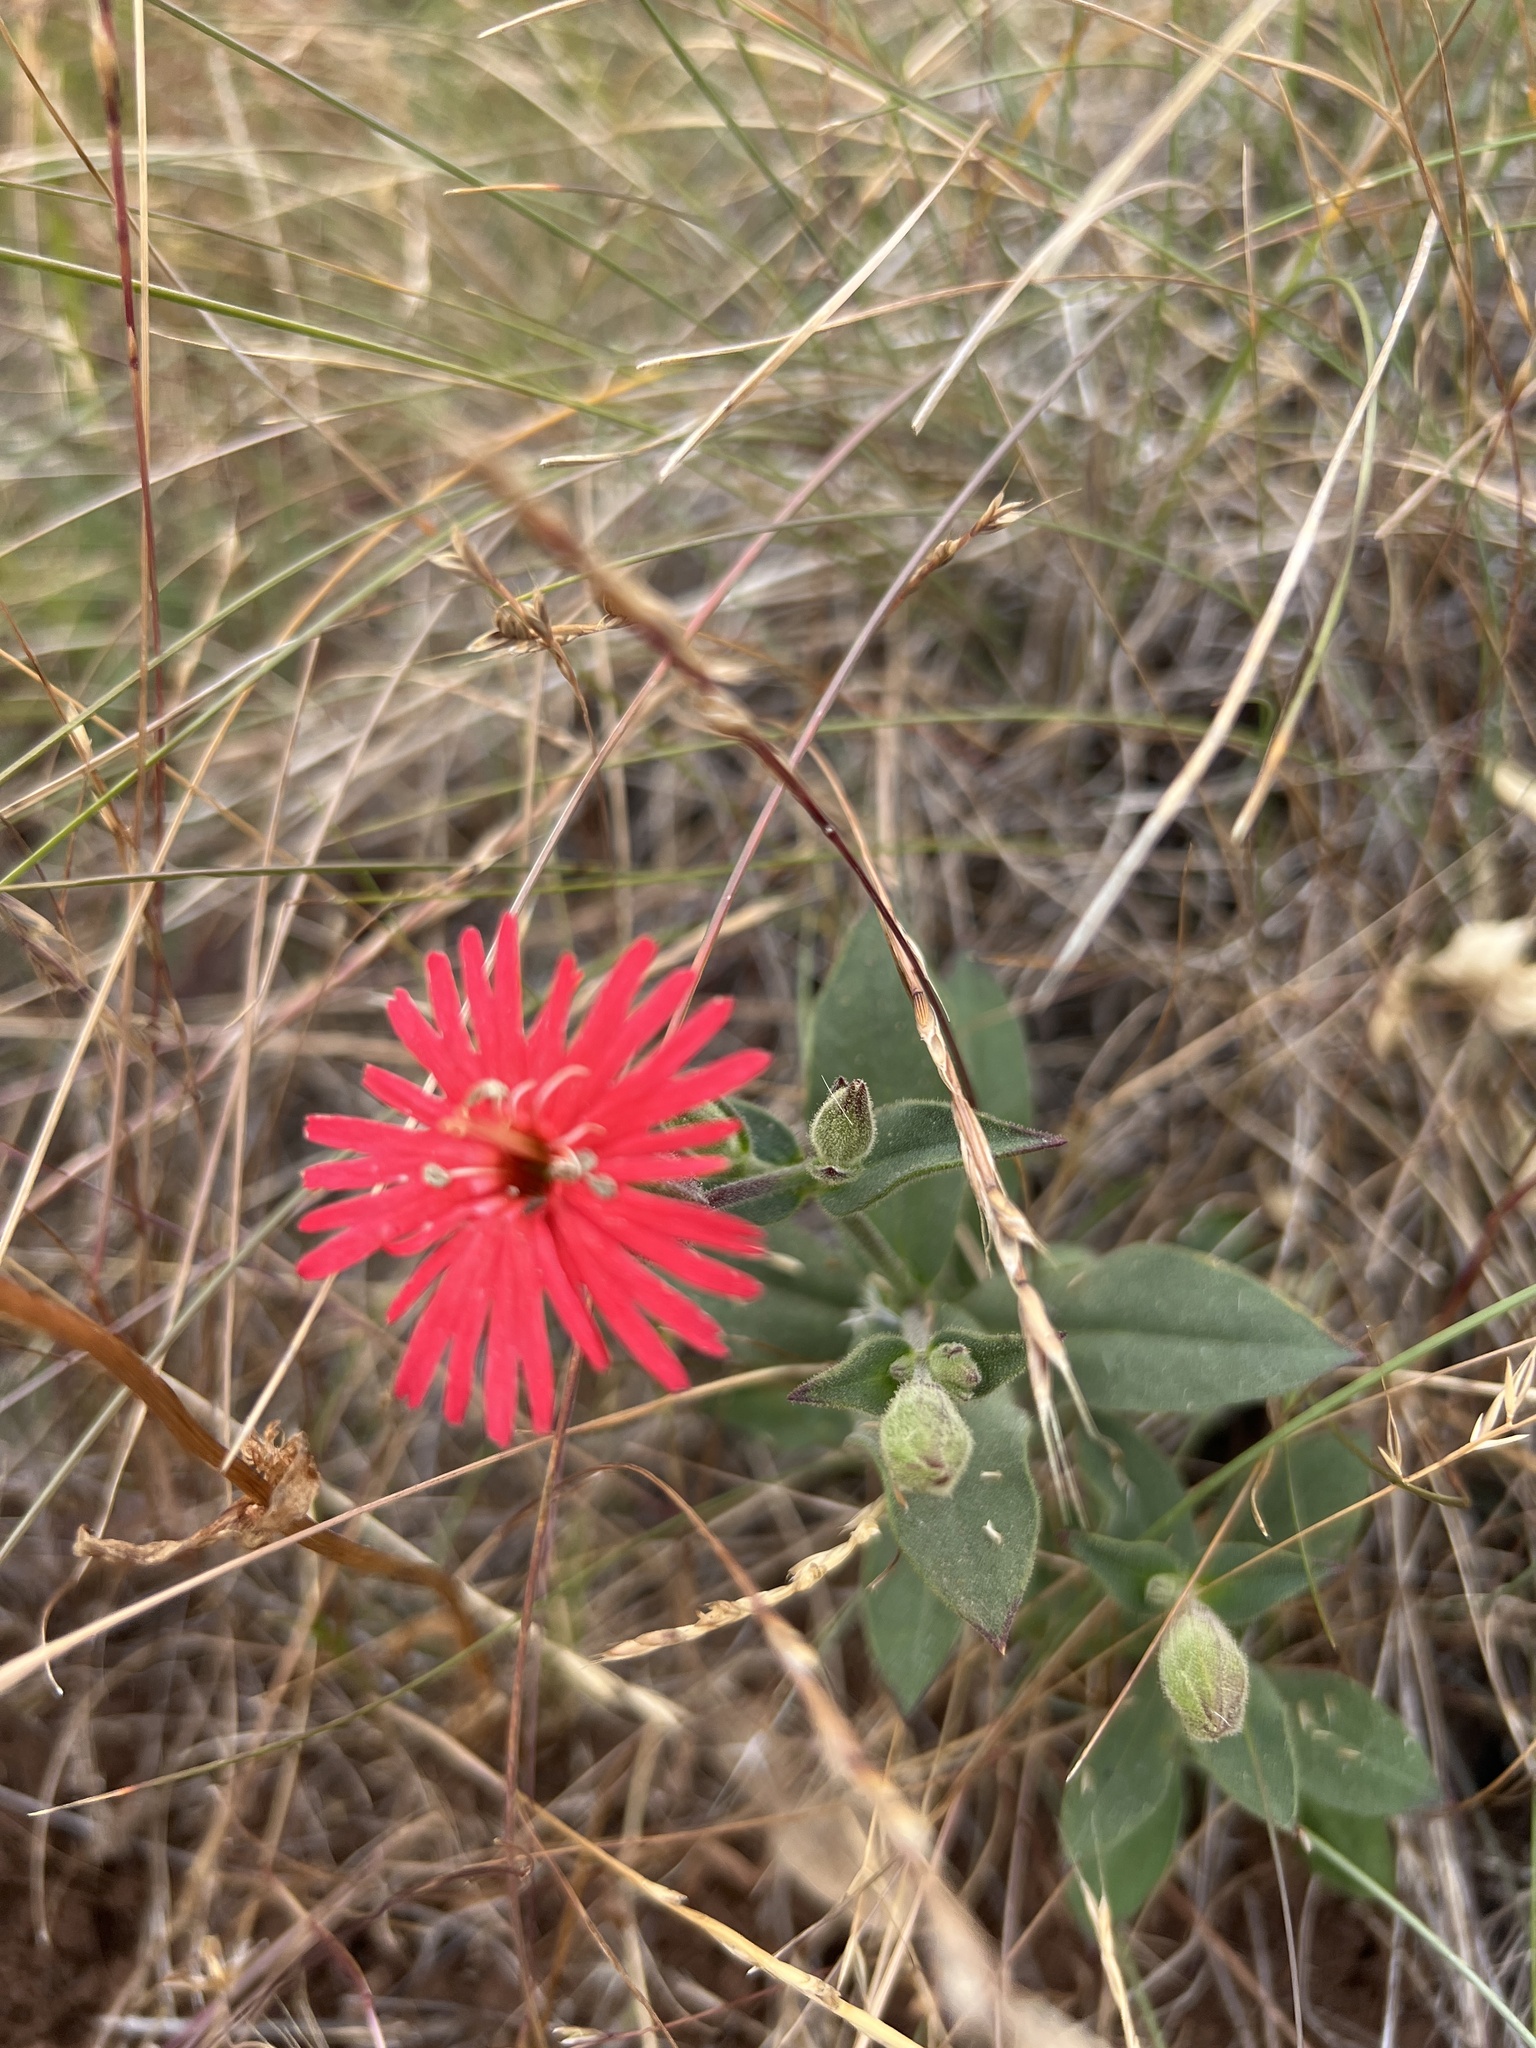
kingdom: Plantae
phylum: Tracheophyta
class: Magnoliopsida
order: Caryophyllales
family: Caryophyllaceae
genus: Silene
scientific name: Silene laciniata
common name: Indian-pink
